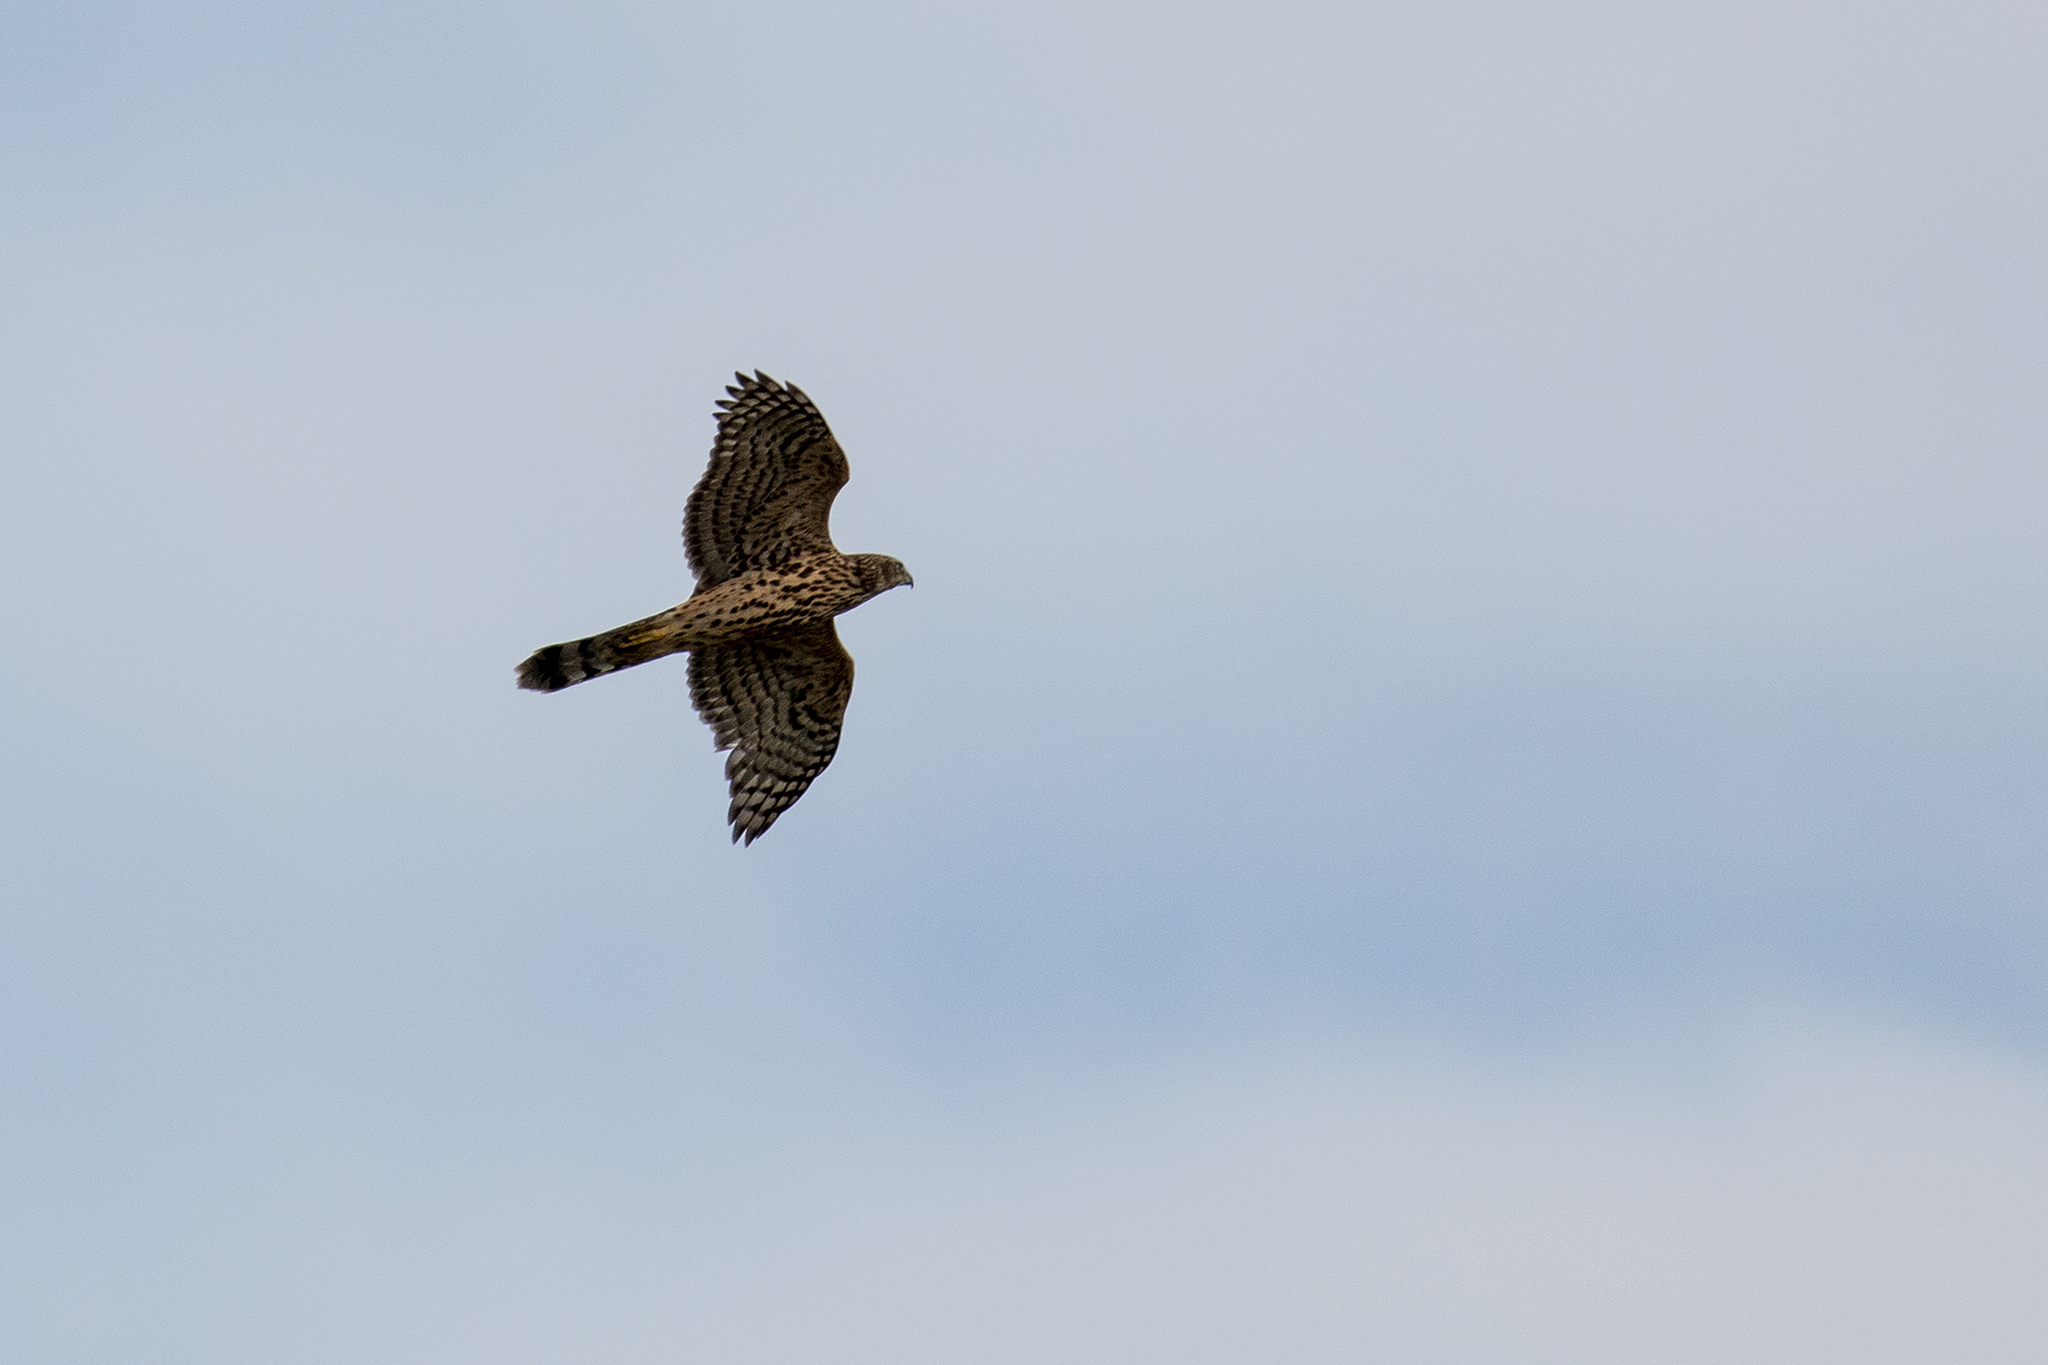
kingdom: Animalia
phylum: Chordata
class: Aves
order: Accipitriformes
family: Accipitridae
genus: Accipiter
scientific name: Accipiter gentilis
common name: Northern goshawk
